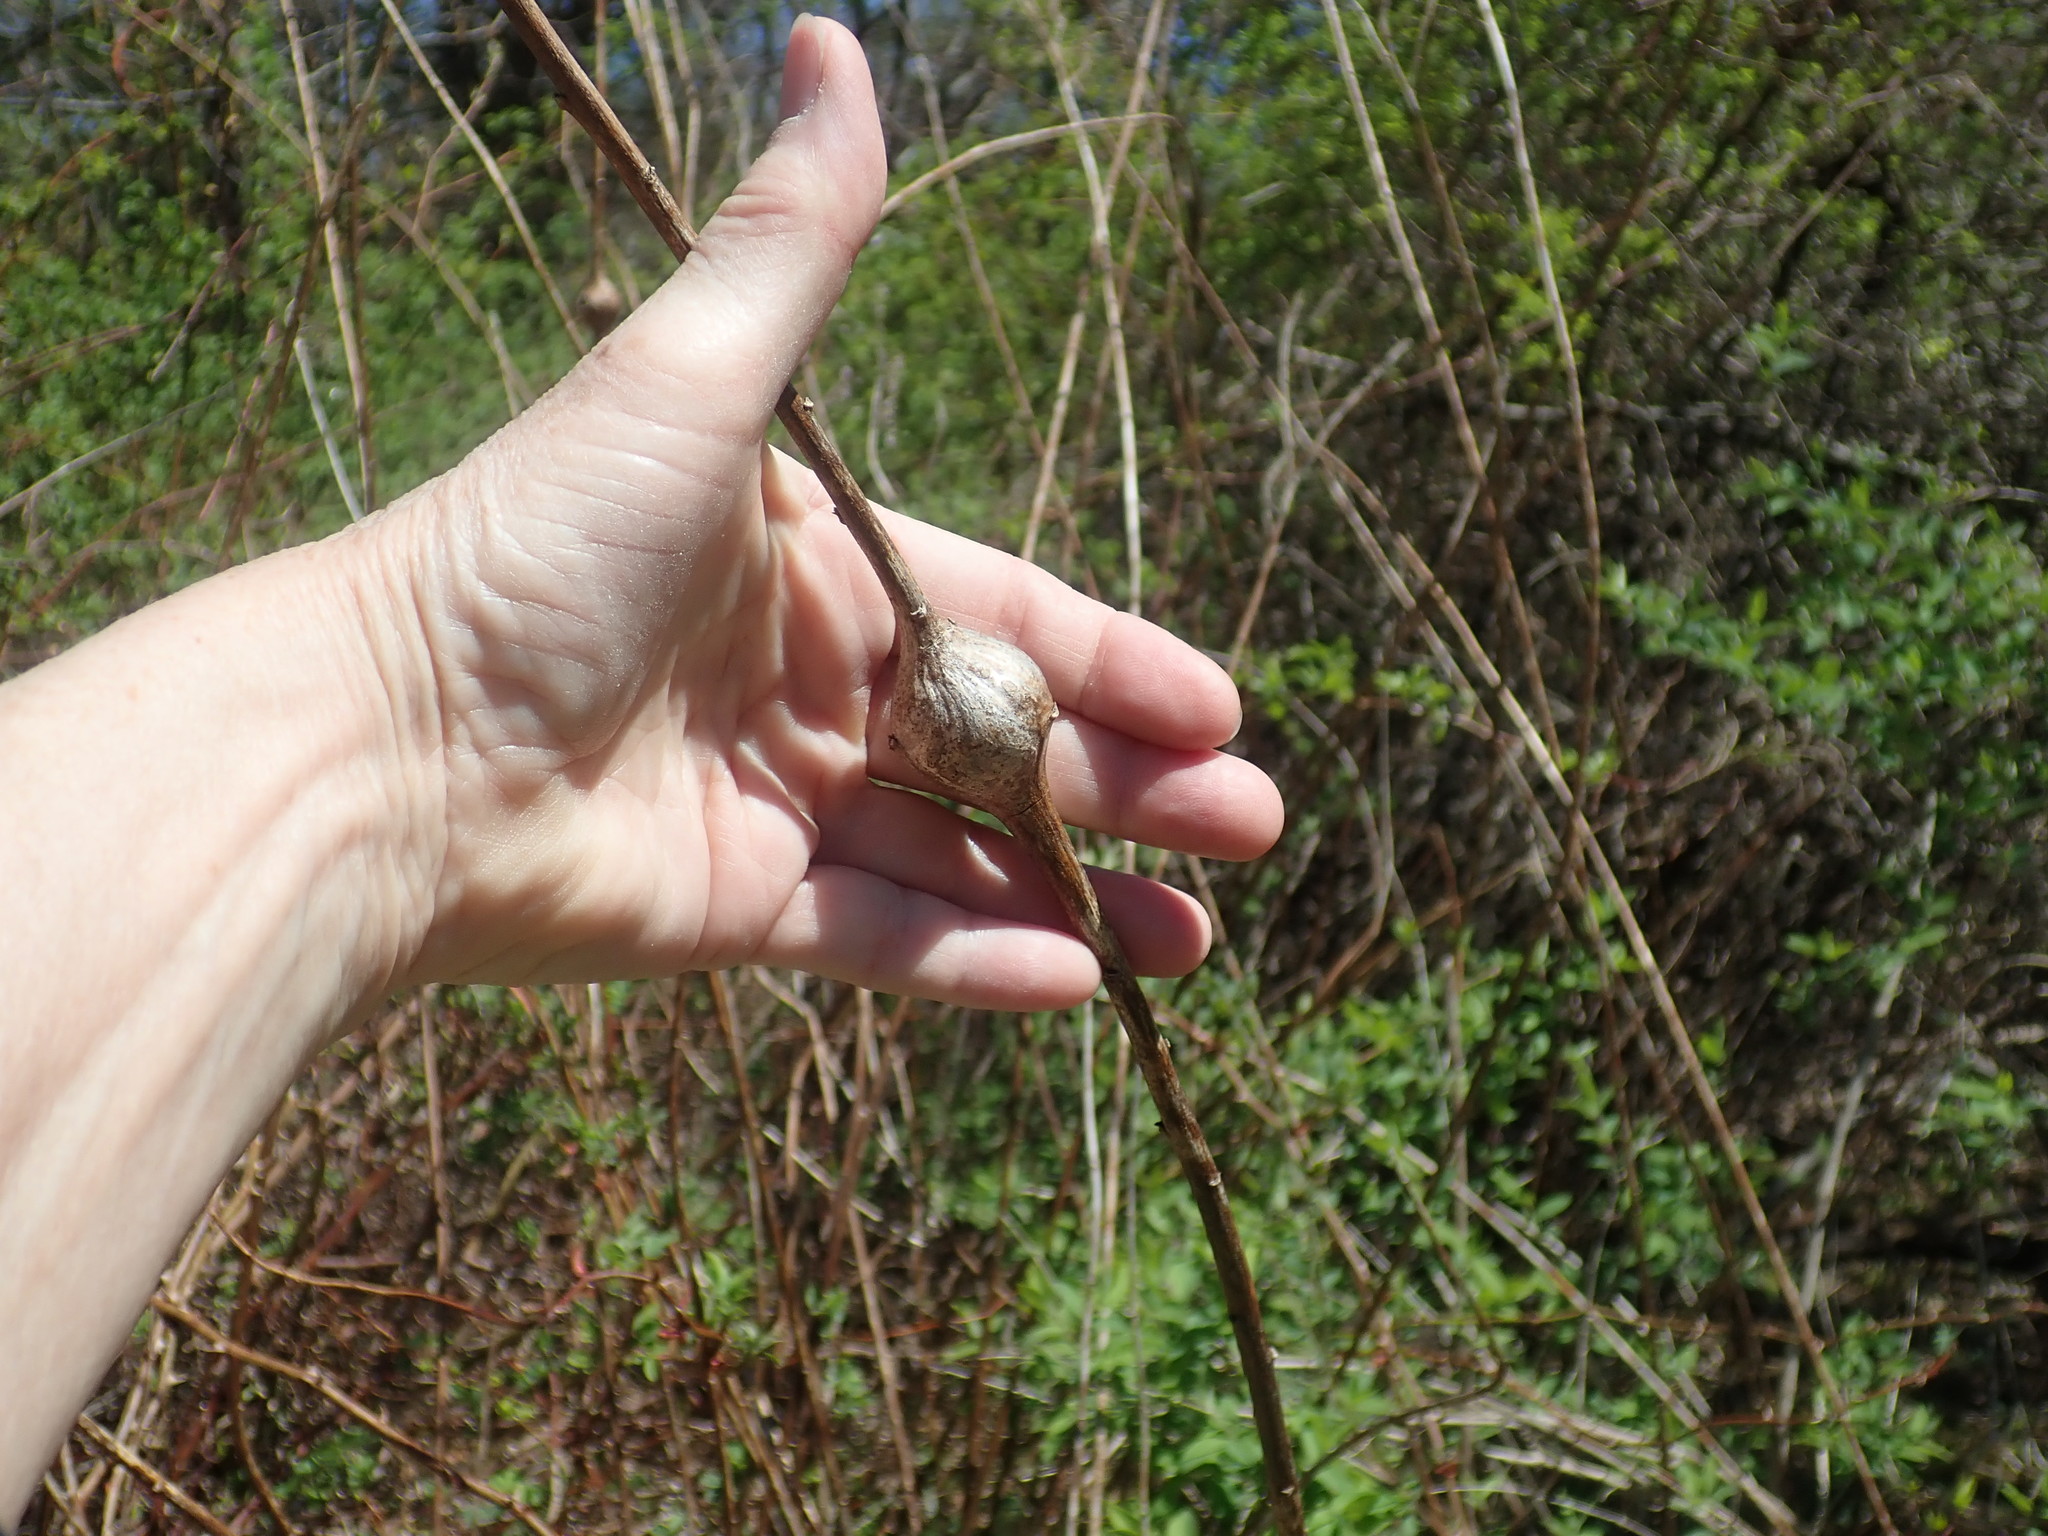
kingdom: Animalia
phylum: Arthropoda
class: Insecta
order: Diptera
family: Tephritidae
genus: Eurosta
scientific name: Eurosta solidaginis
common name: Goldenrod gall fly
